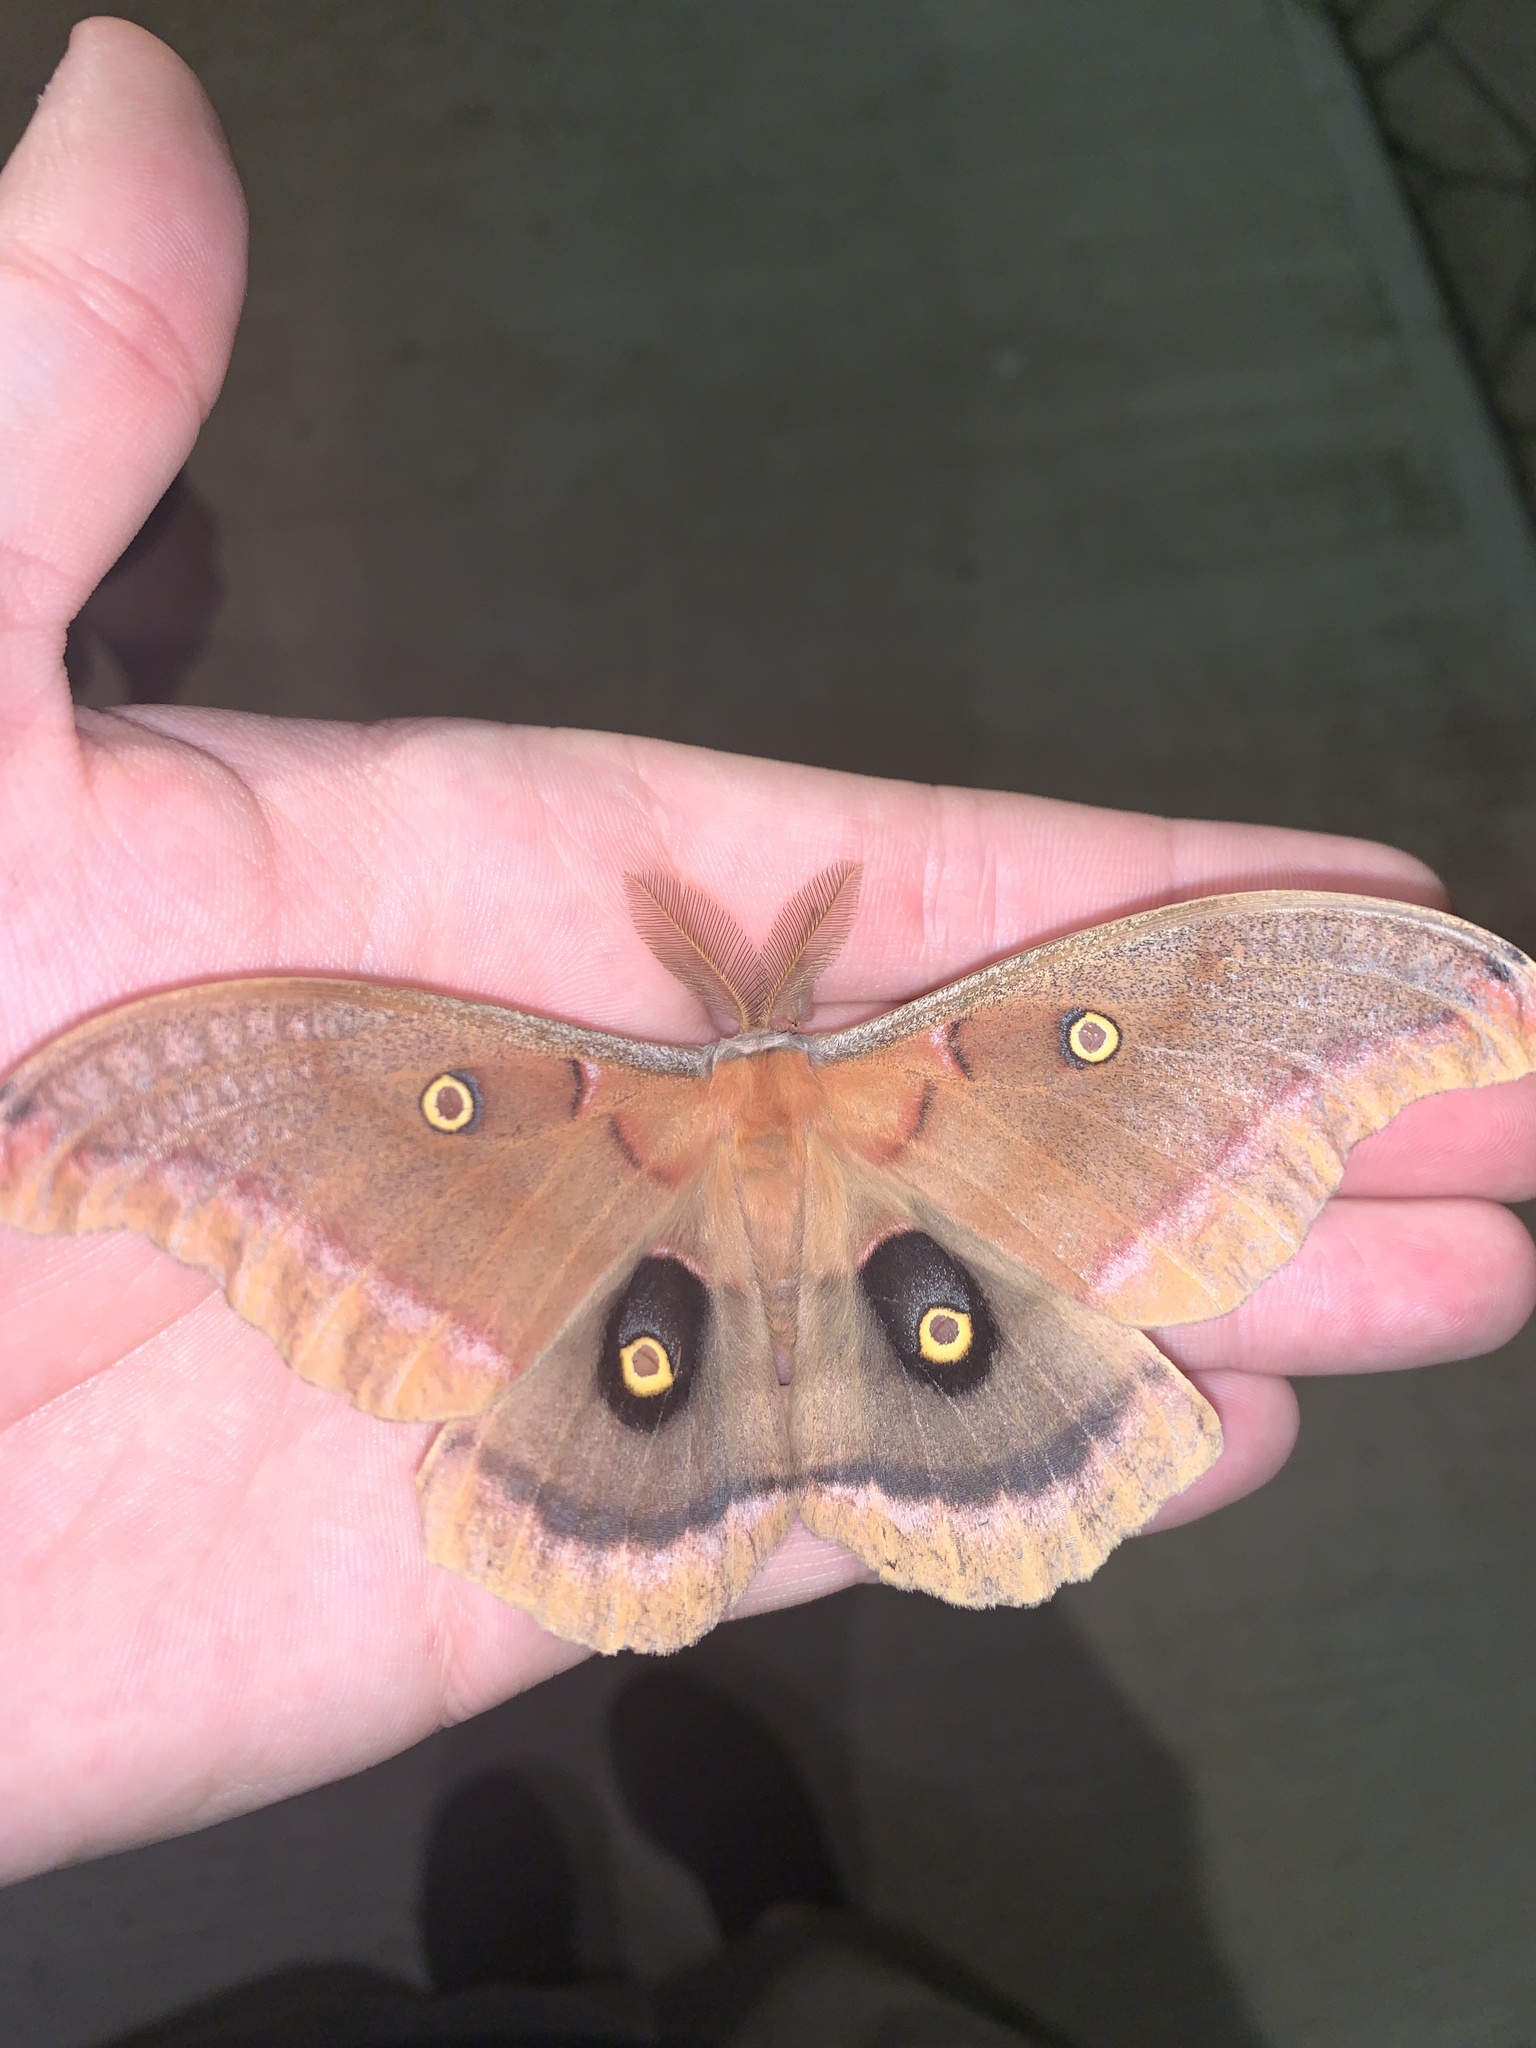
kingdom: Animalia
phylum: Arthropoda
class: Insecta
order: Lepidoptera
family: Saturniidae
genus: Antheraea
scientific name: Antheraea polyphemus
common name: Polyphemus moth
